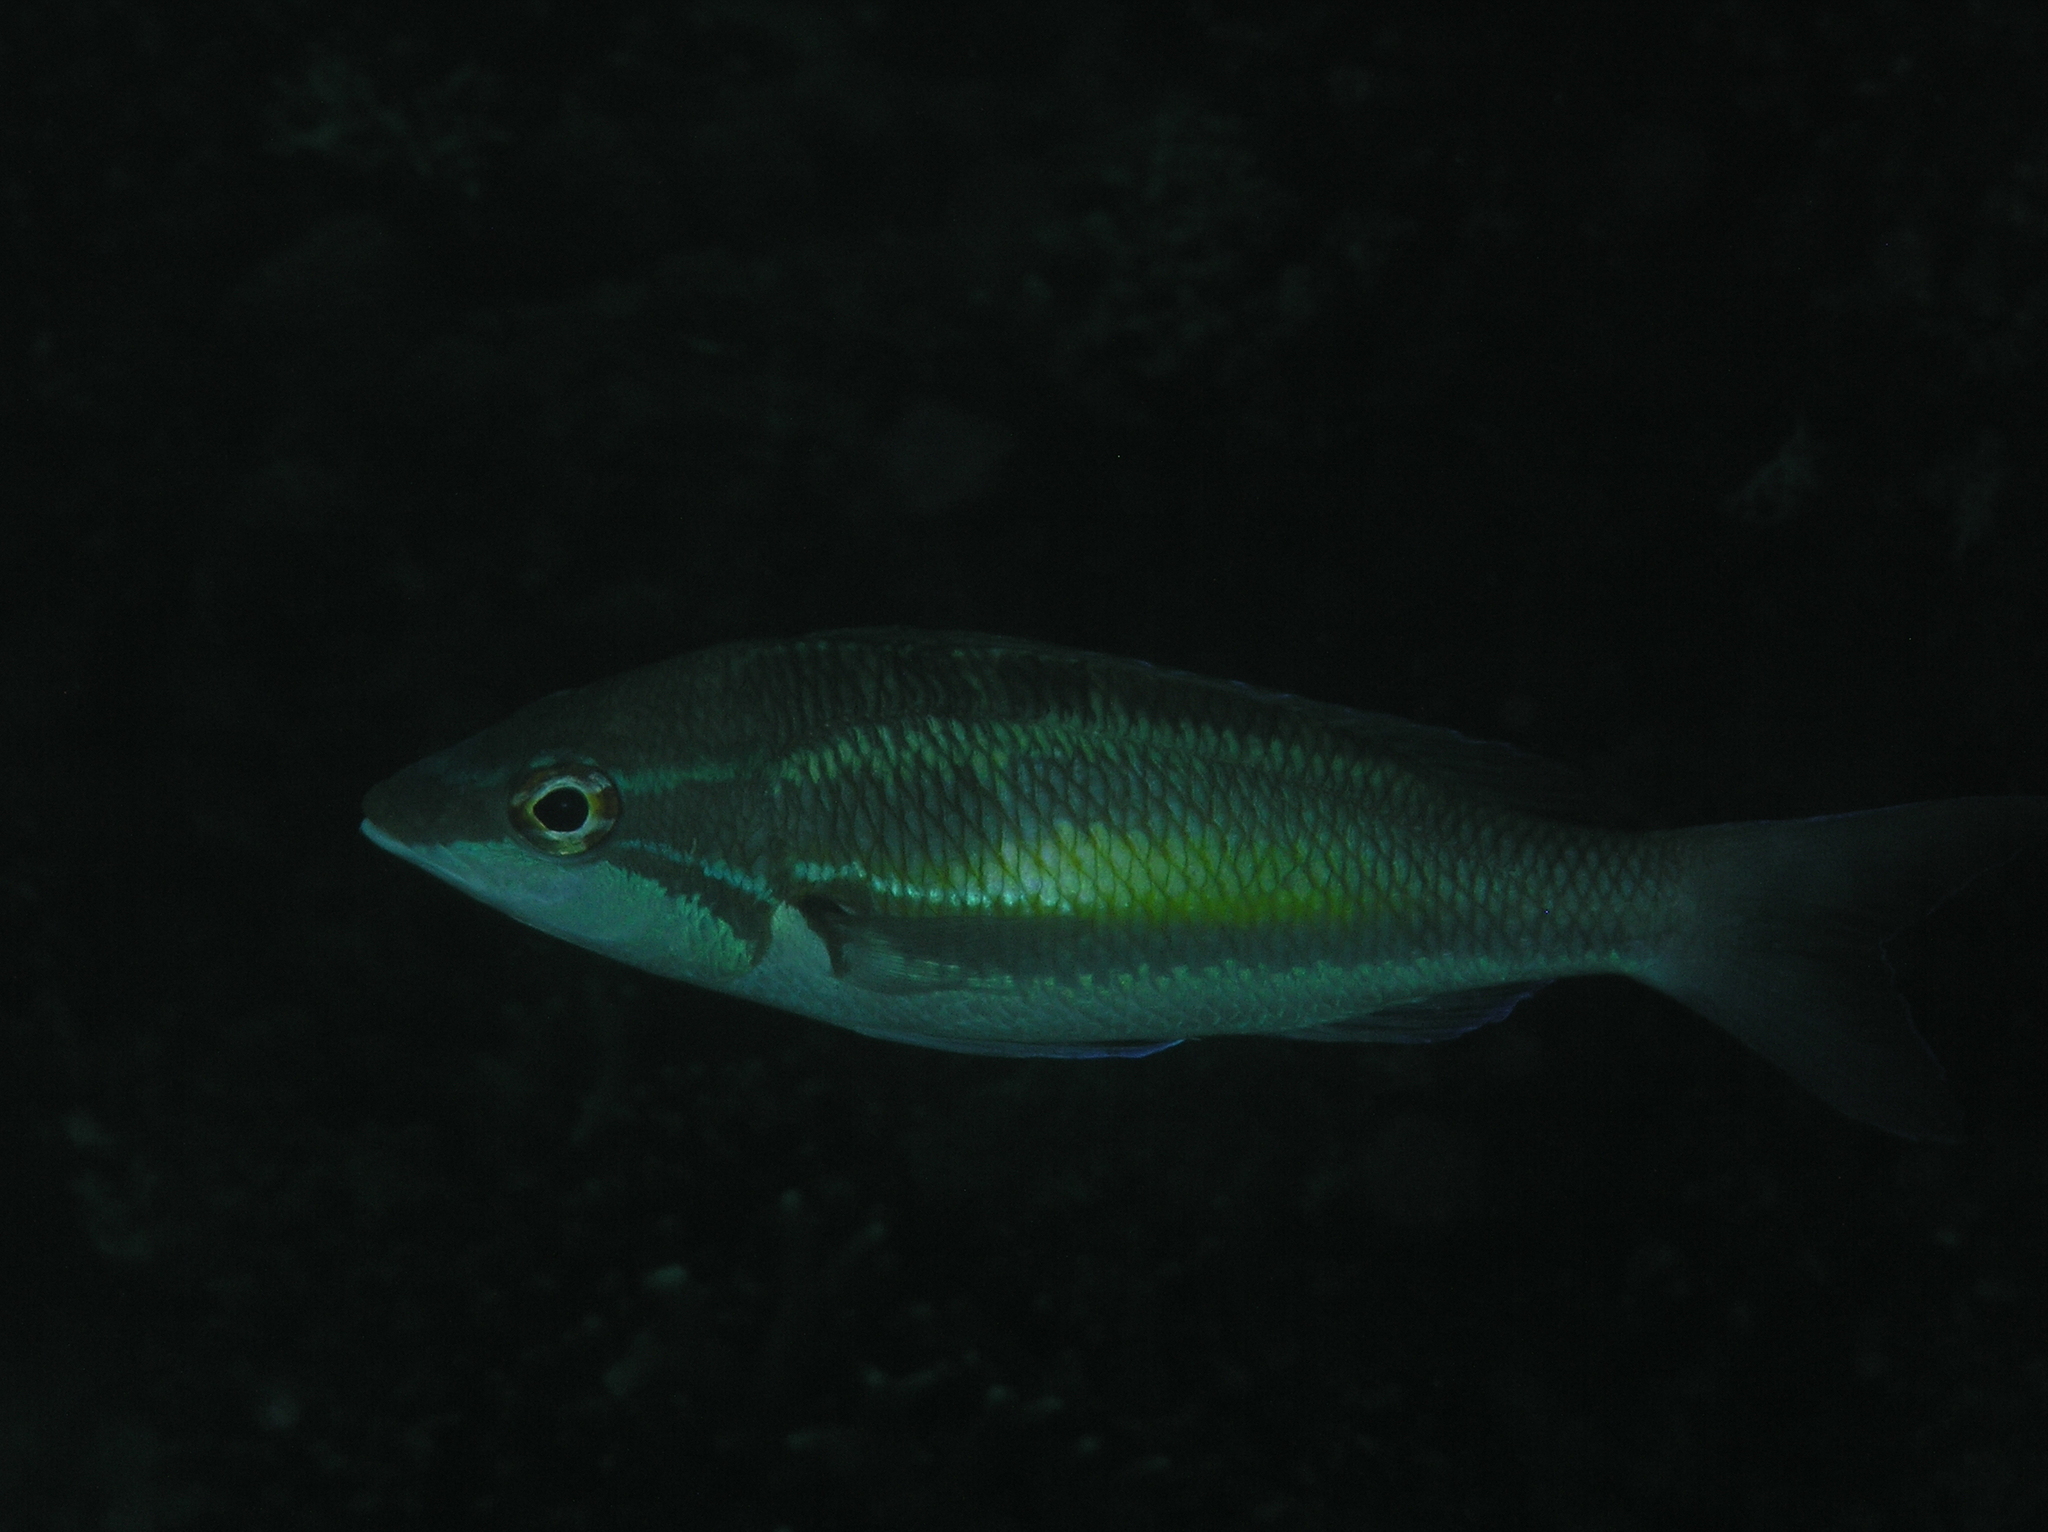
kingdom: Animalia
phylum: Chordata
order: Perciformes
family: Nemipteridae
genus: Pentapodus
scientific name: Pentapodus trivittatus
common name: Three-striped whiptail
